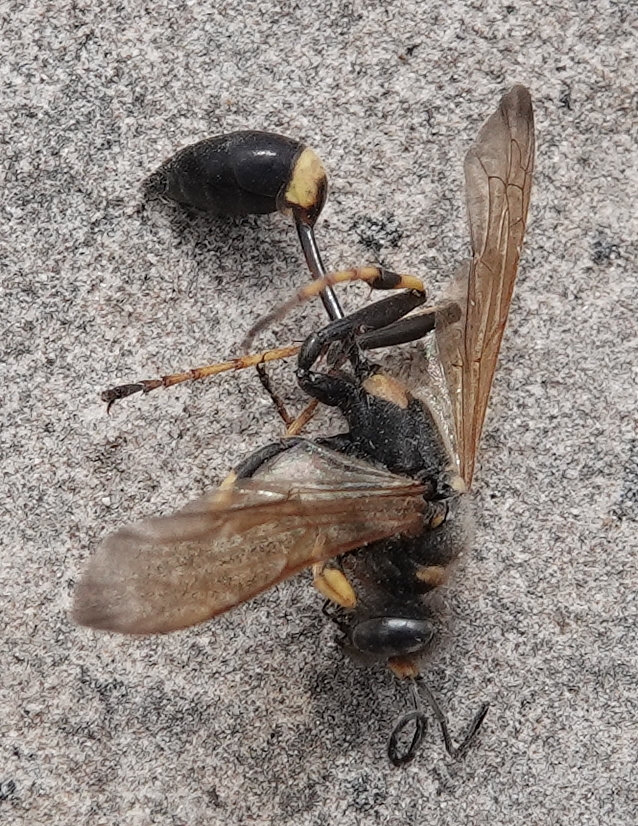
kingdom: Animalia
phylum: Arthropoda
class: Insecta
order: Hymenoptera
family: Sphecidae
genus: Sceliphron
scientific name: Sceliphron caementarium
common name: Mud dauber
